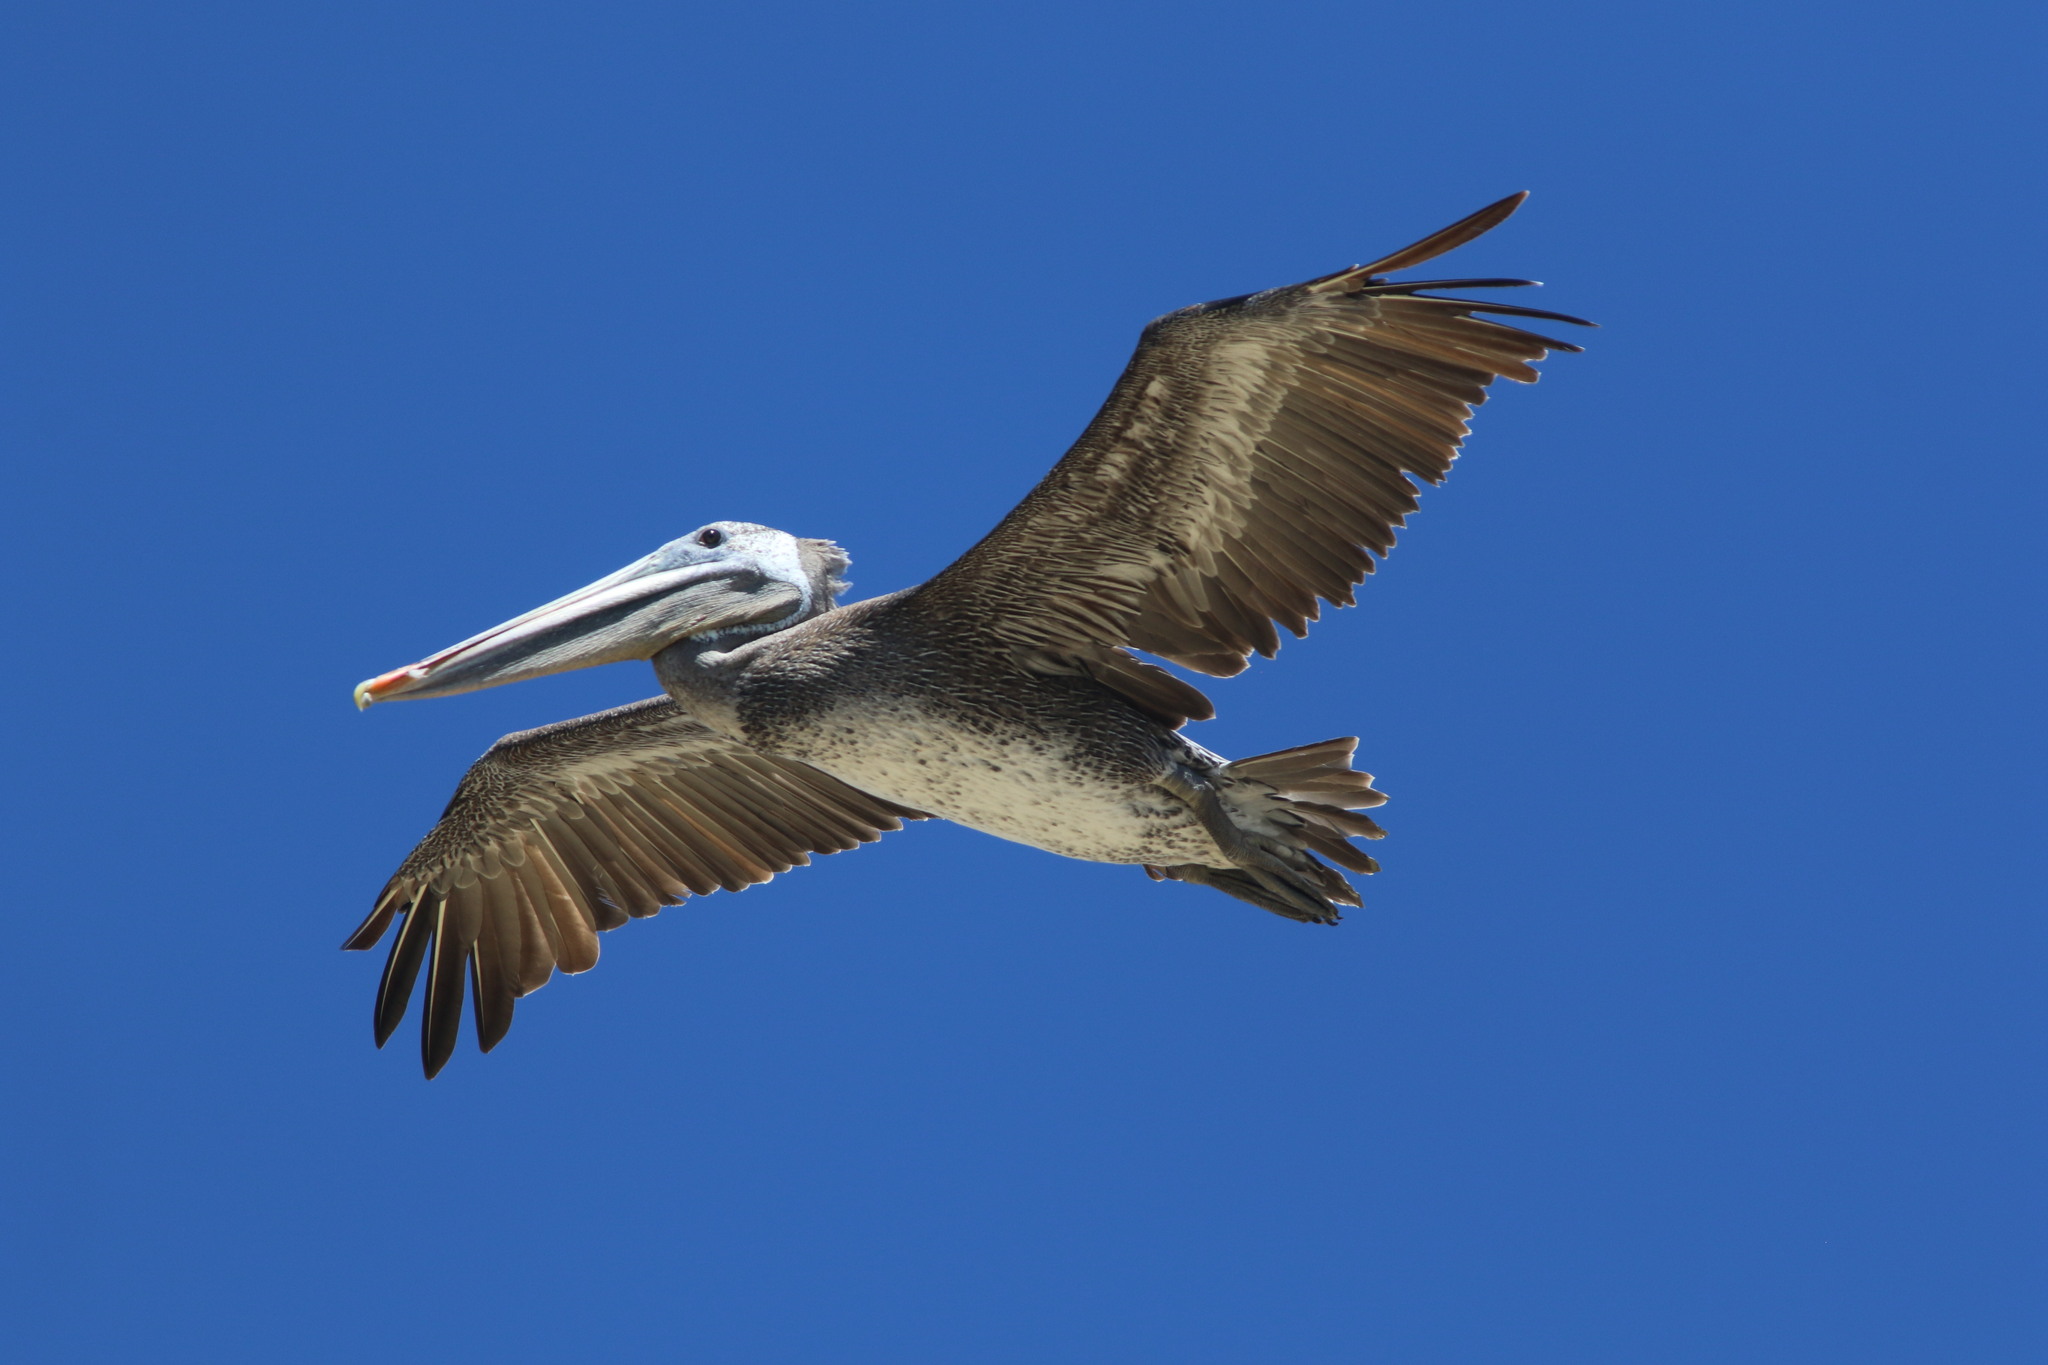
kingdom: Animalia
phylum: Chordata
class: Aves
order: Pelecaniformes
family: Pelecanidae
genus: Pelecanus
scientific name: Pelecanus occidentalis
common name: Brown pelican
